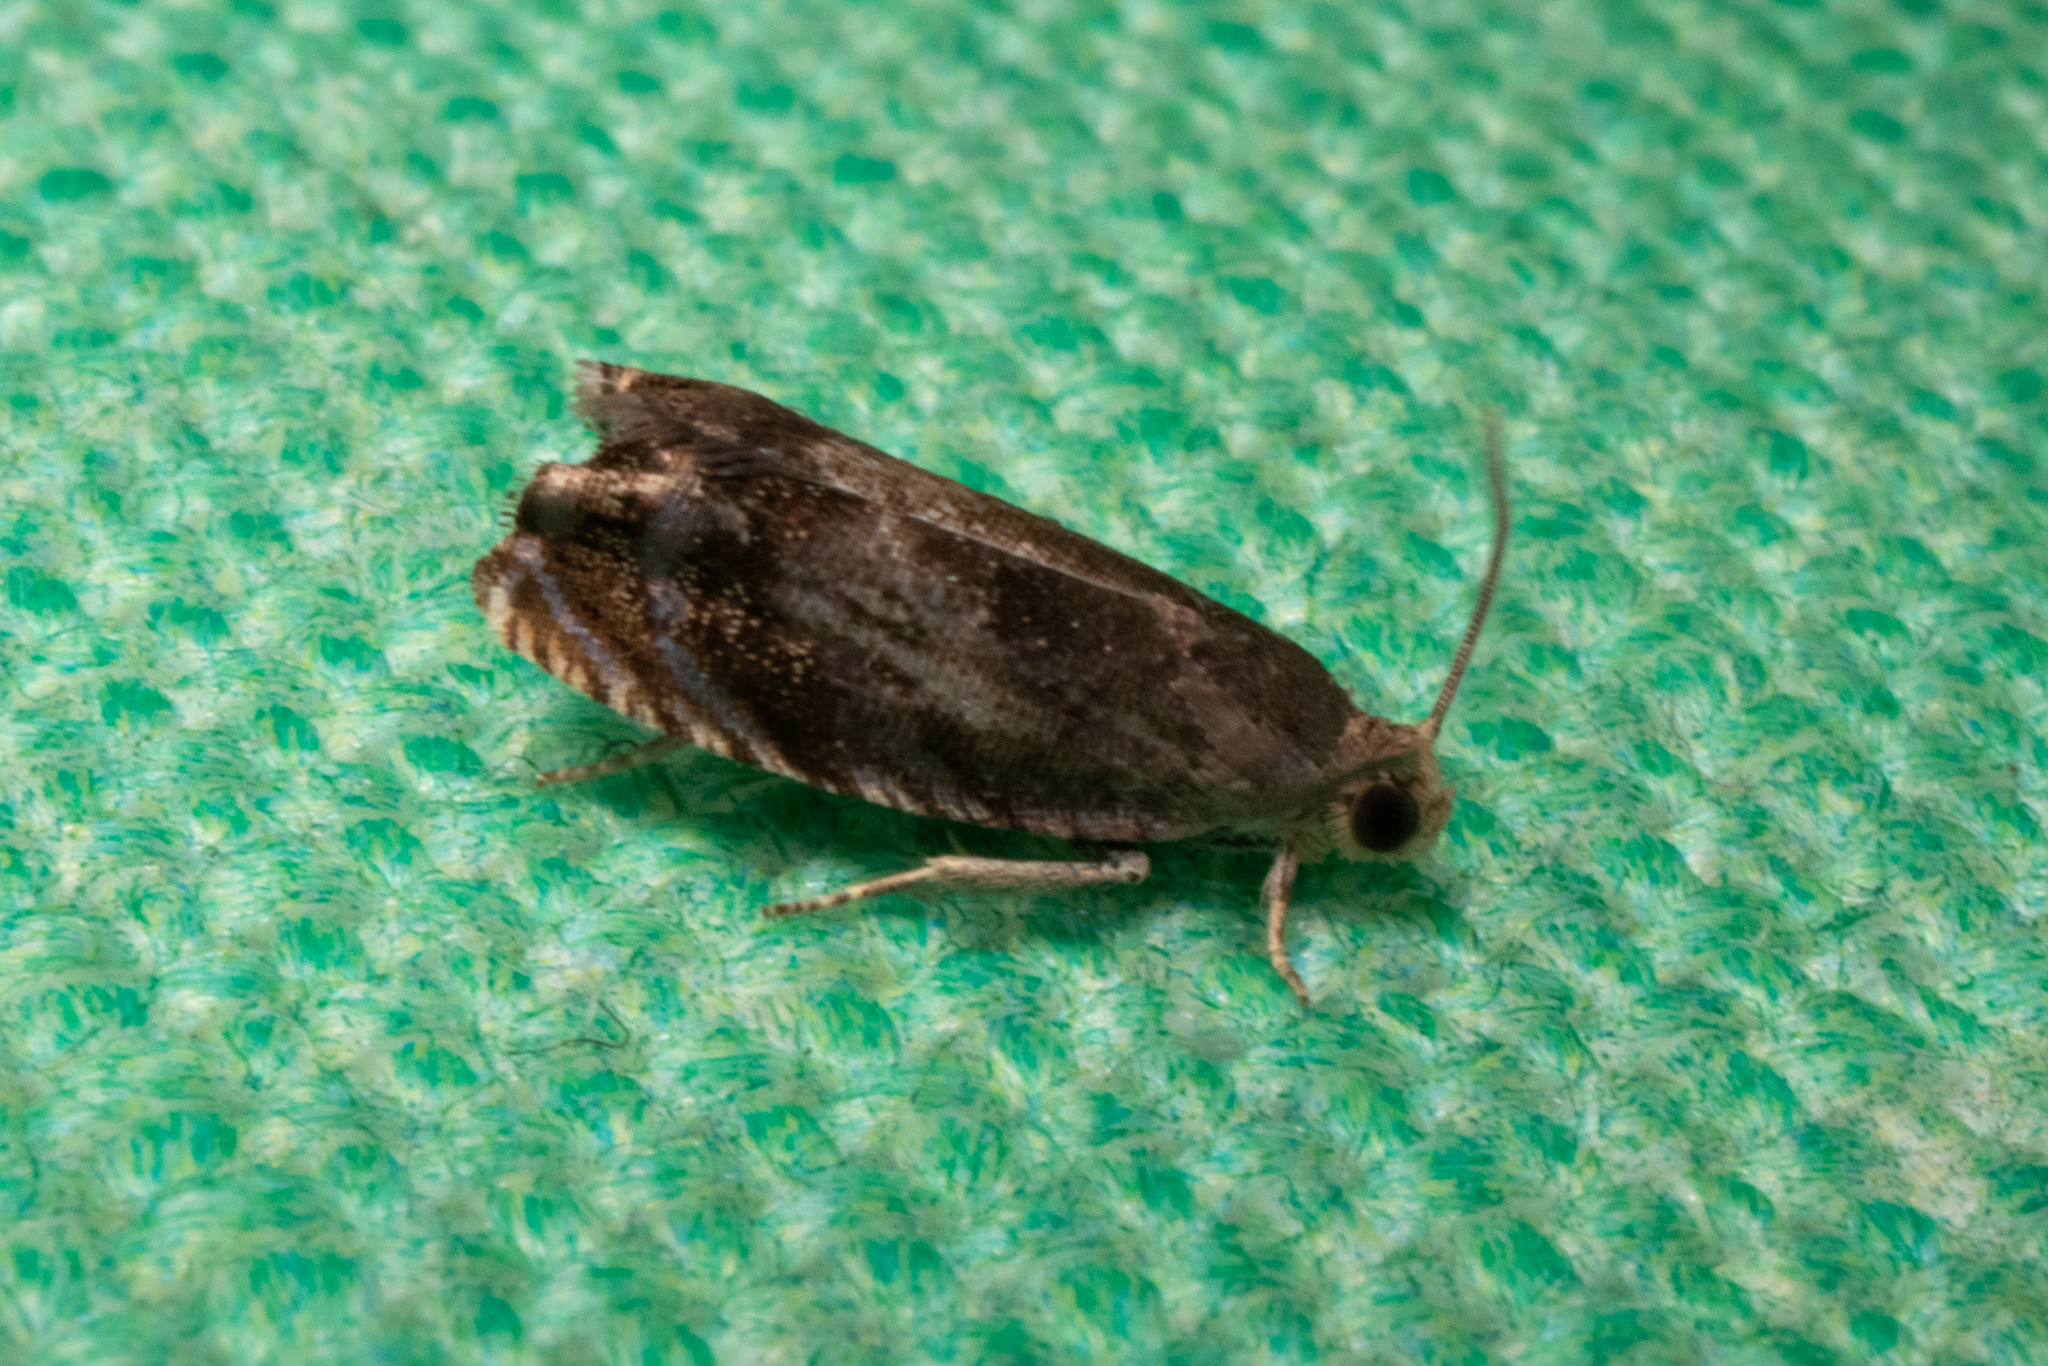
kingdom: Animalia
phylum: Arthropoda
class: Insecta
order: Lepidoptera
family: Tortricidae
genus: Cydia
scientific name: Cydia caryana
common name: Hickory shuckworm moth
